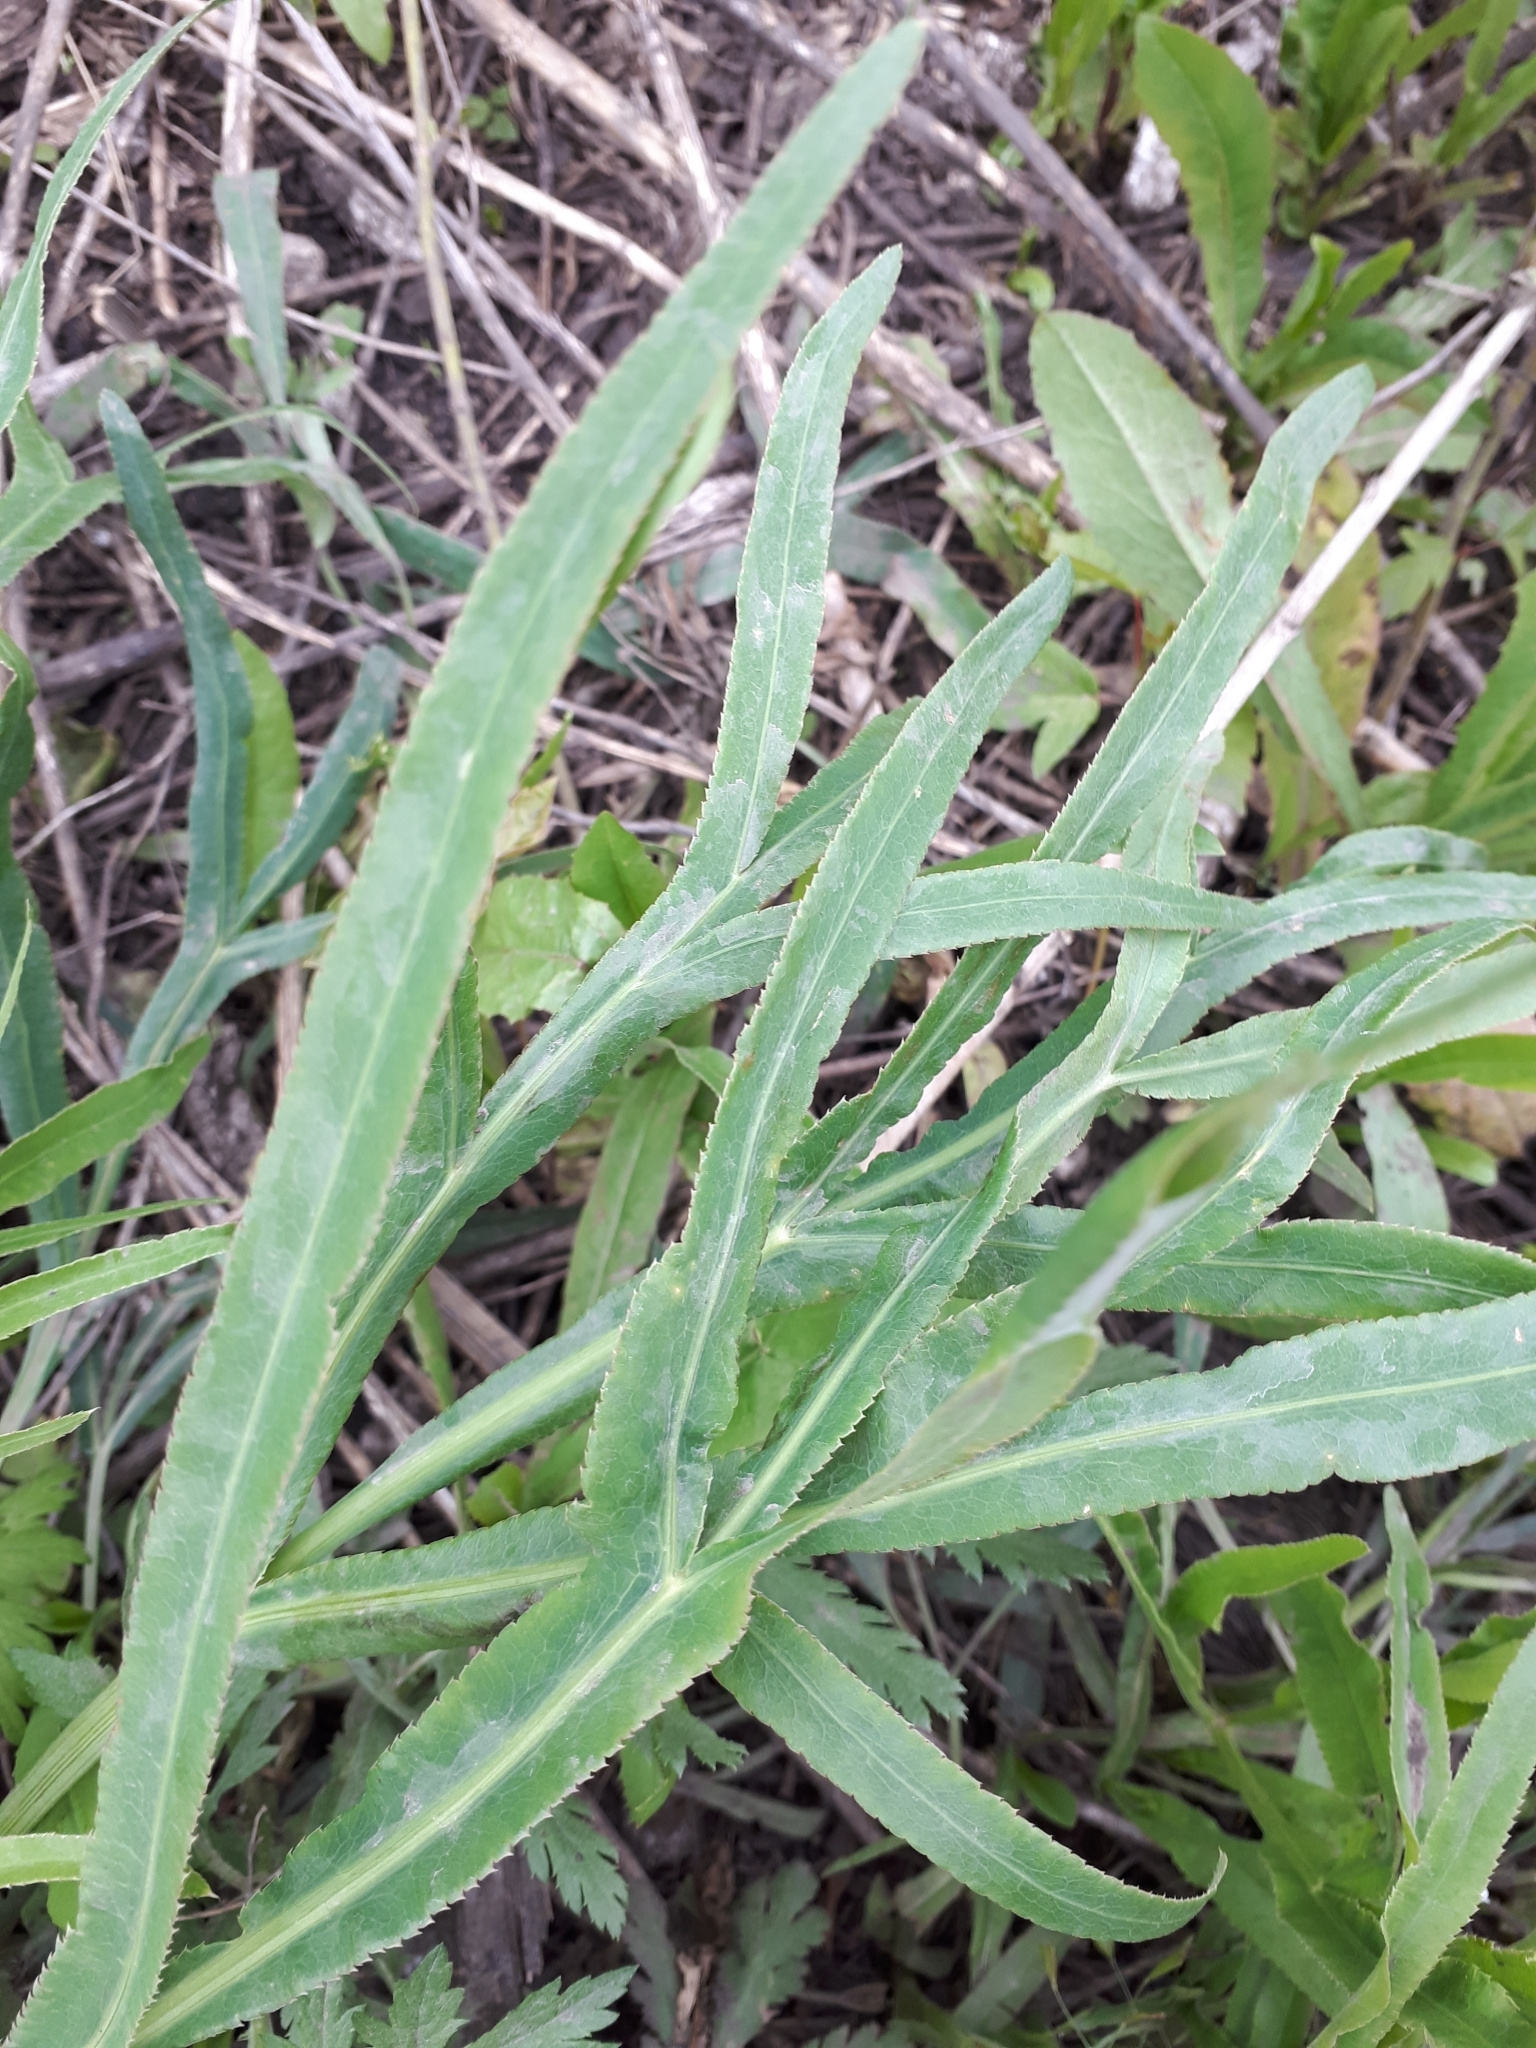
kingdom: Plantae
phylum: Tracheophyta
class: Magnoliopsida
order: Apiales
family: Apiaceae
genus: Falcaria
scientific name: Falcaria vulgaris
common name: Longleaf
